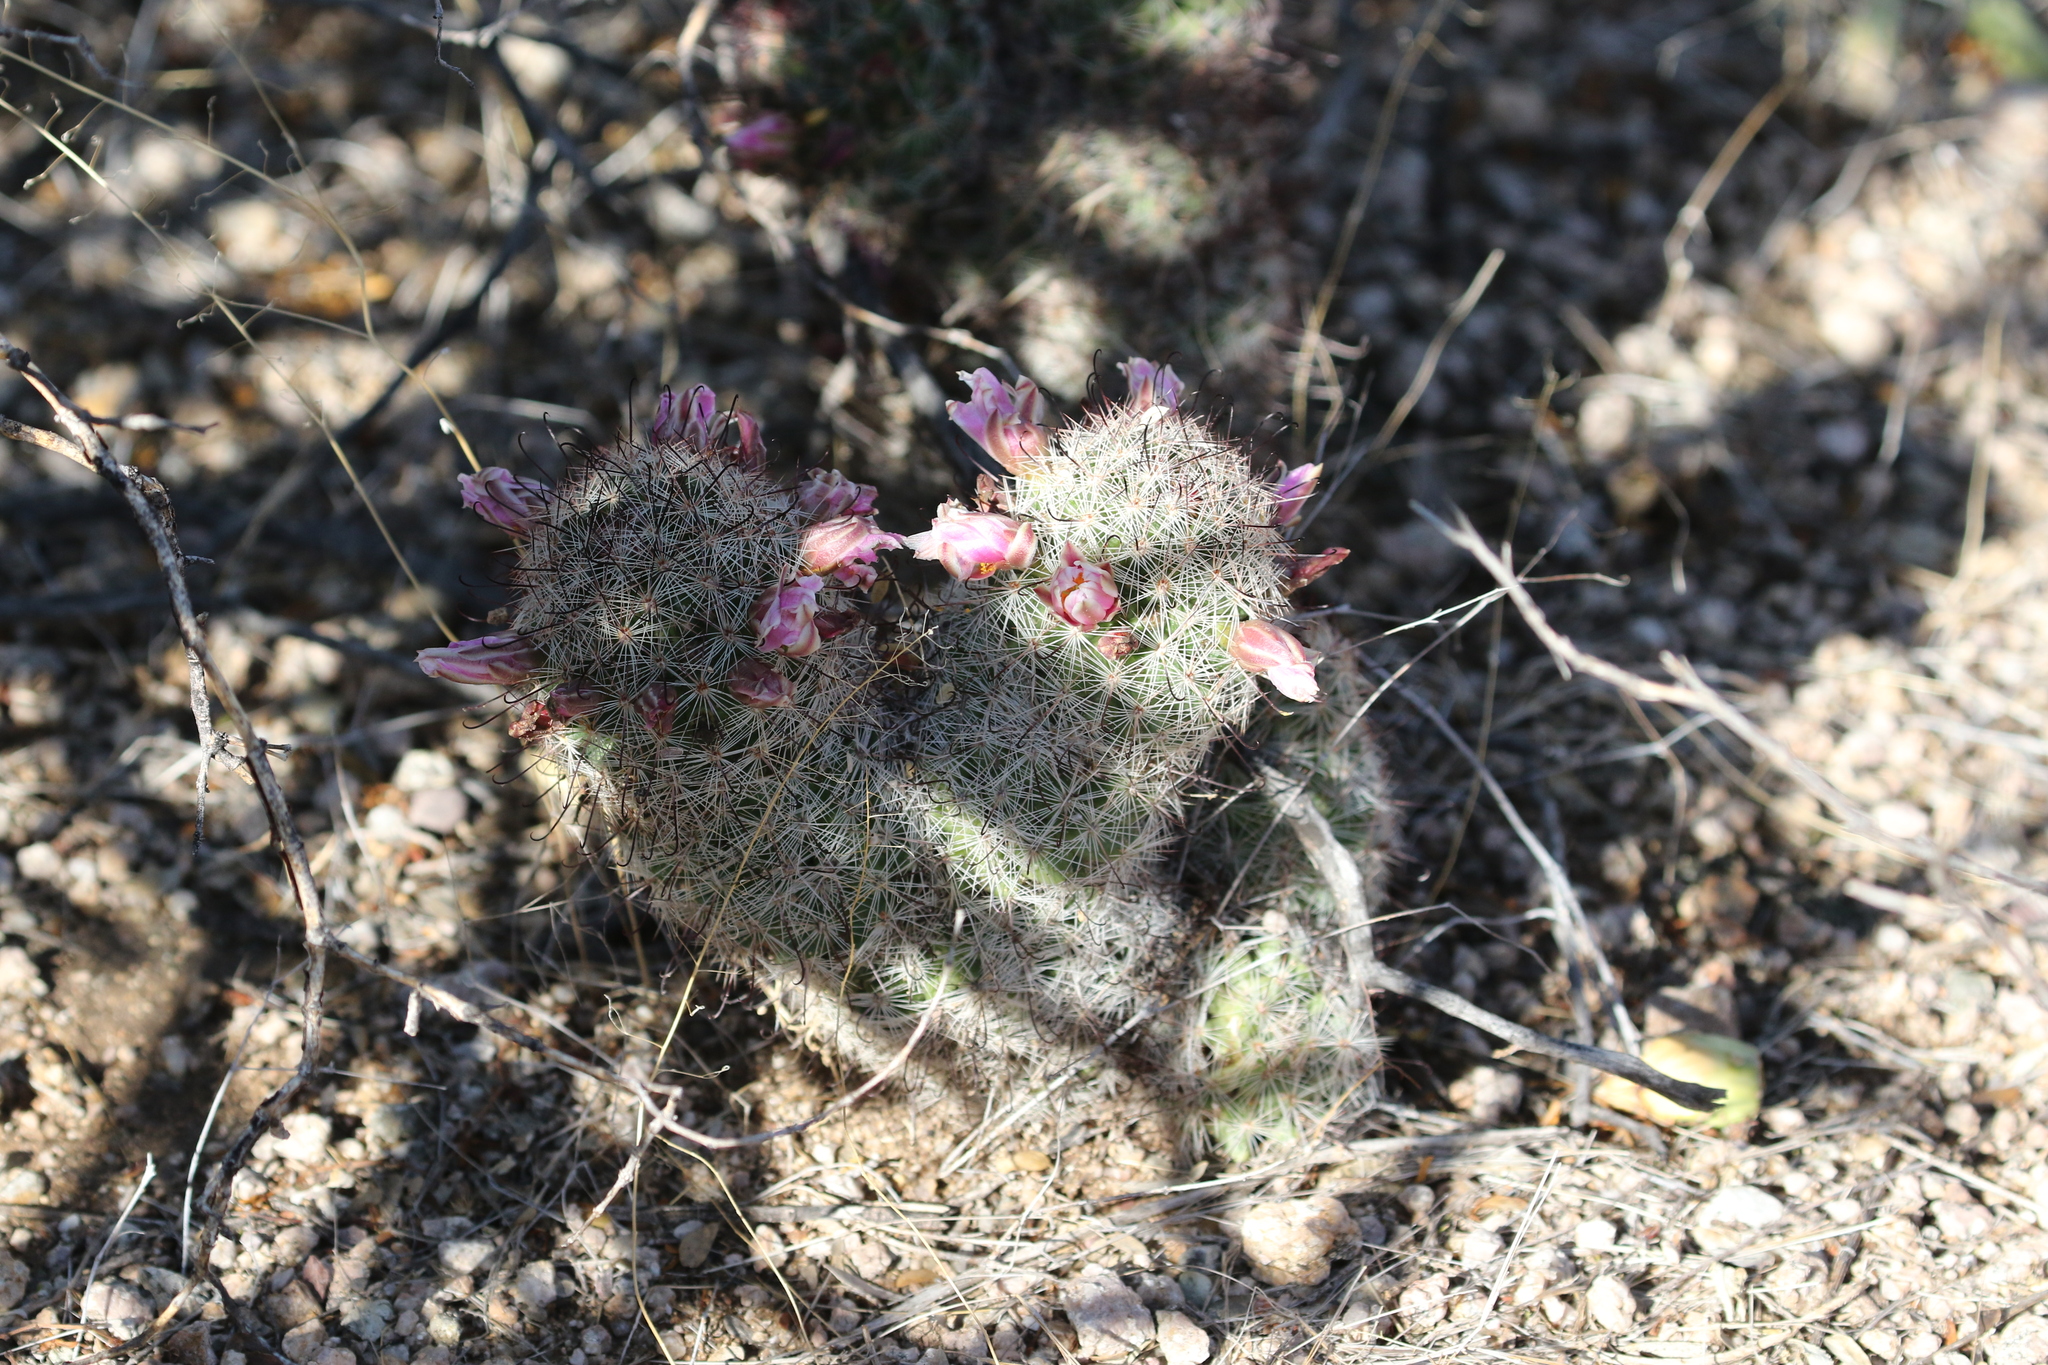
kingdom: Plantae
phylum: Tracheophyta
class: Magnoliopsida
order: Caryophyllales
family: Cactaceae
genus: Cochemiea
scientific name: Cochemiea grahamii
